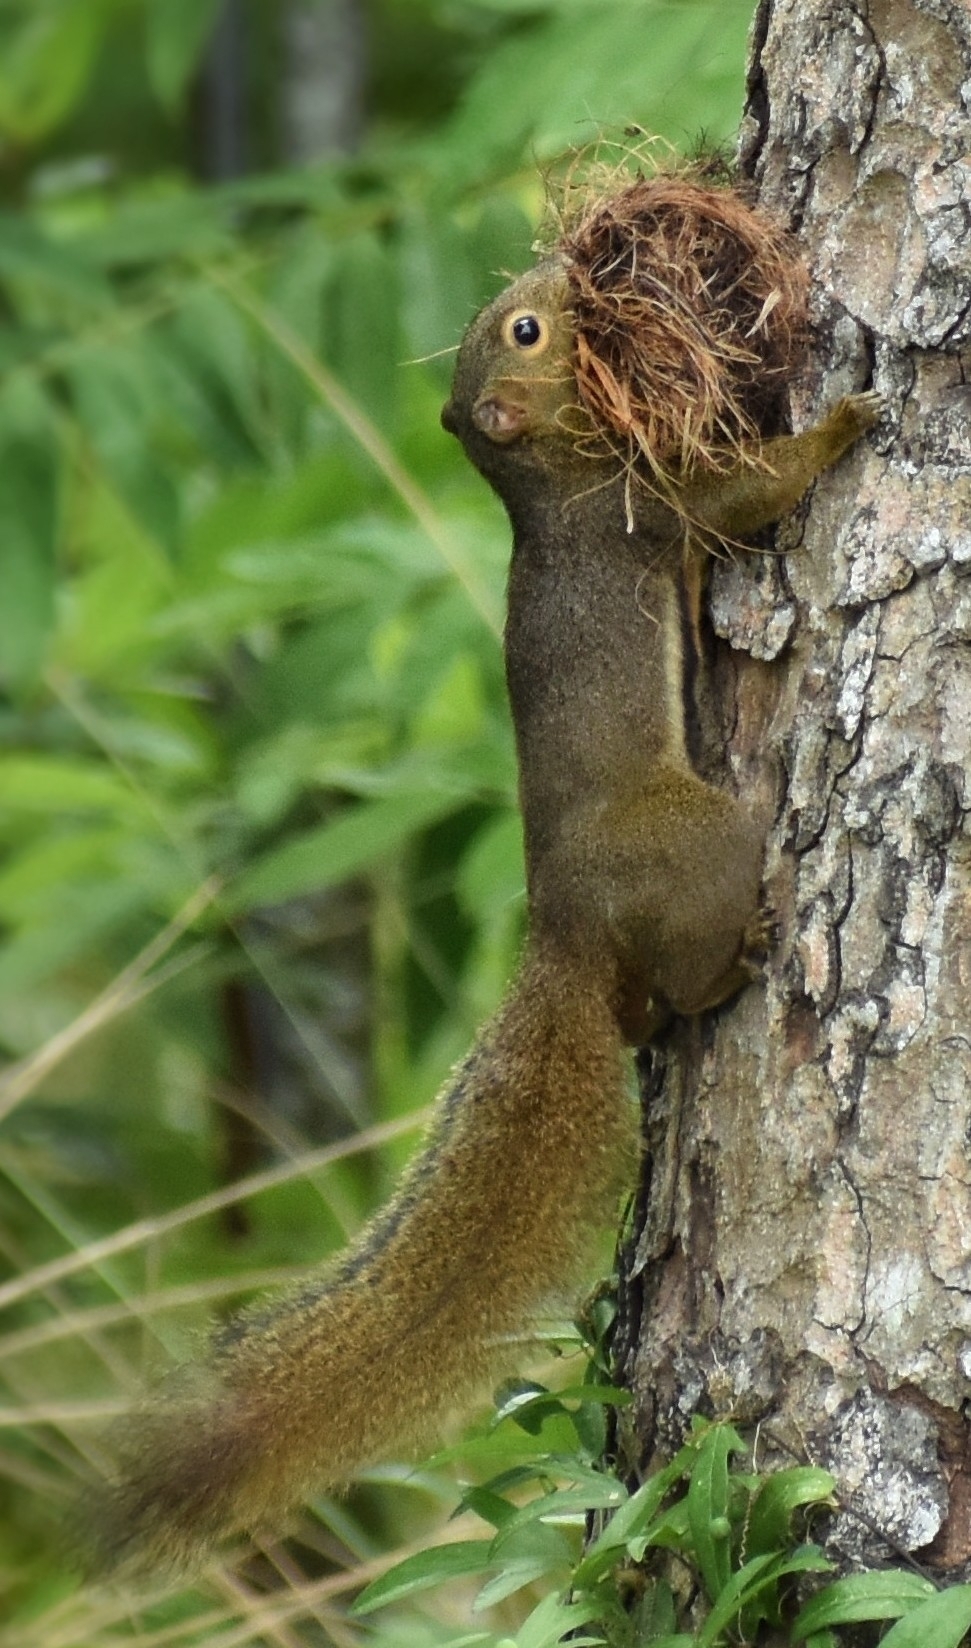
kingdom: Animalia
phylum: Chordata
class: Mammalia
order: Rodentia
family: Sciuridae
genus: Callosciurus
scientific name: Callosciurus notatus
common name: Plantain squirrel
